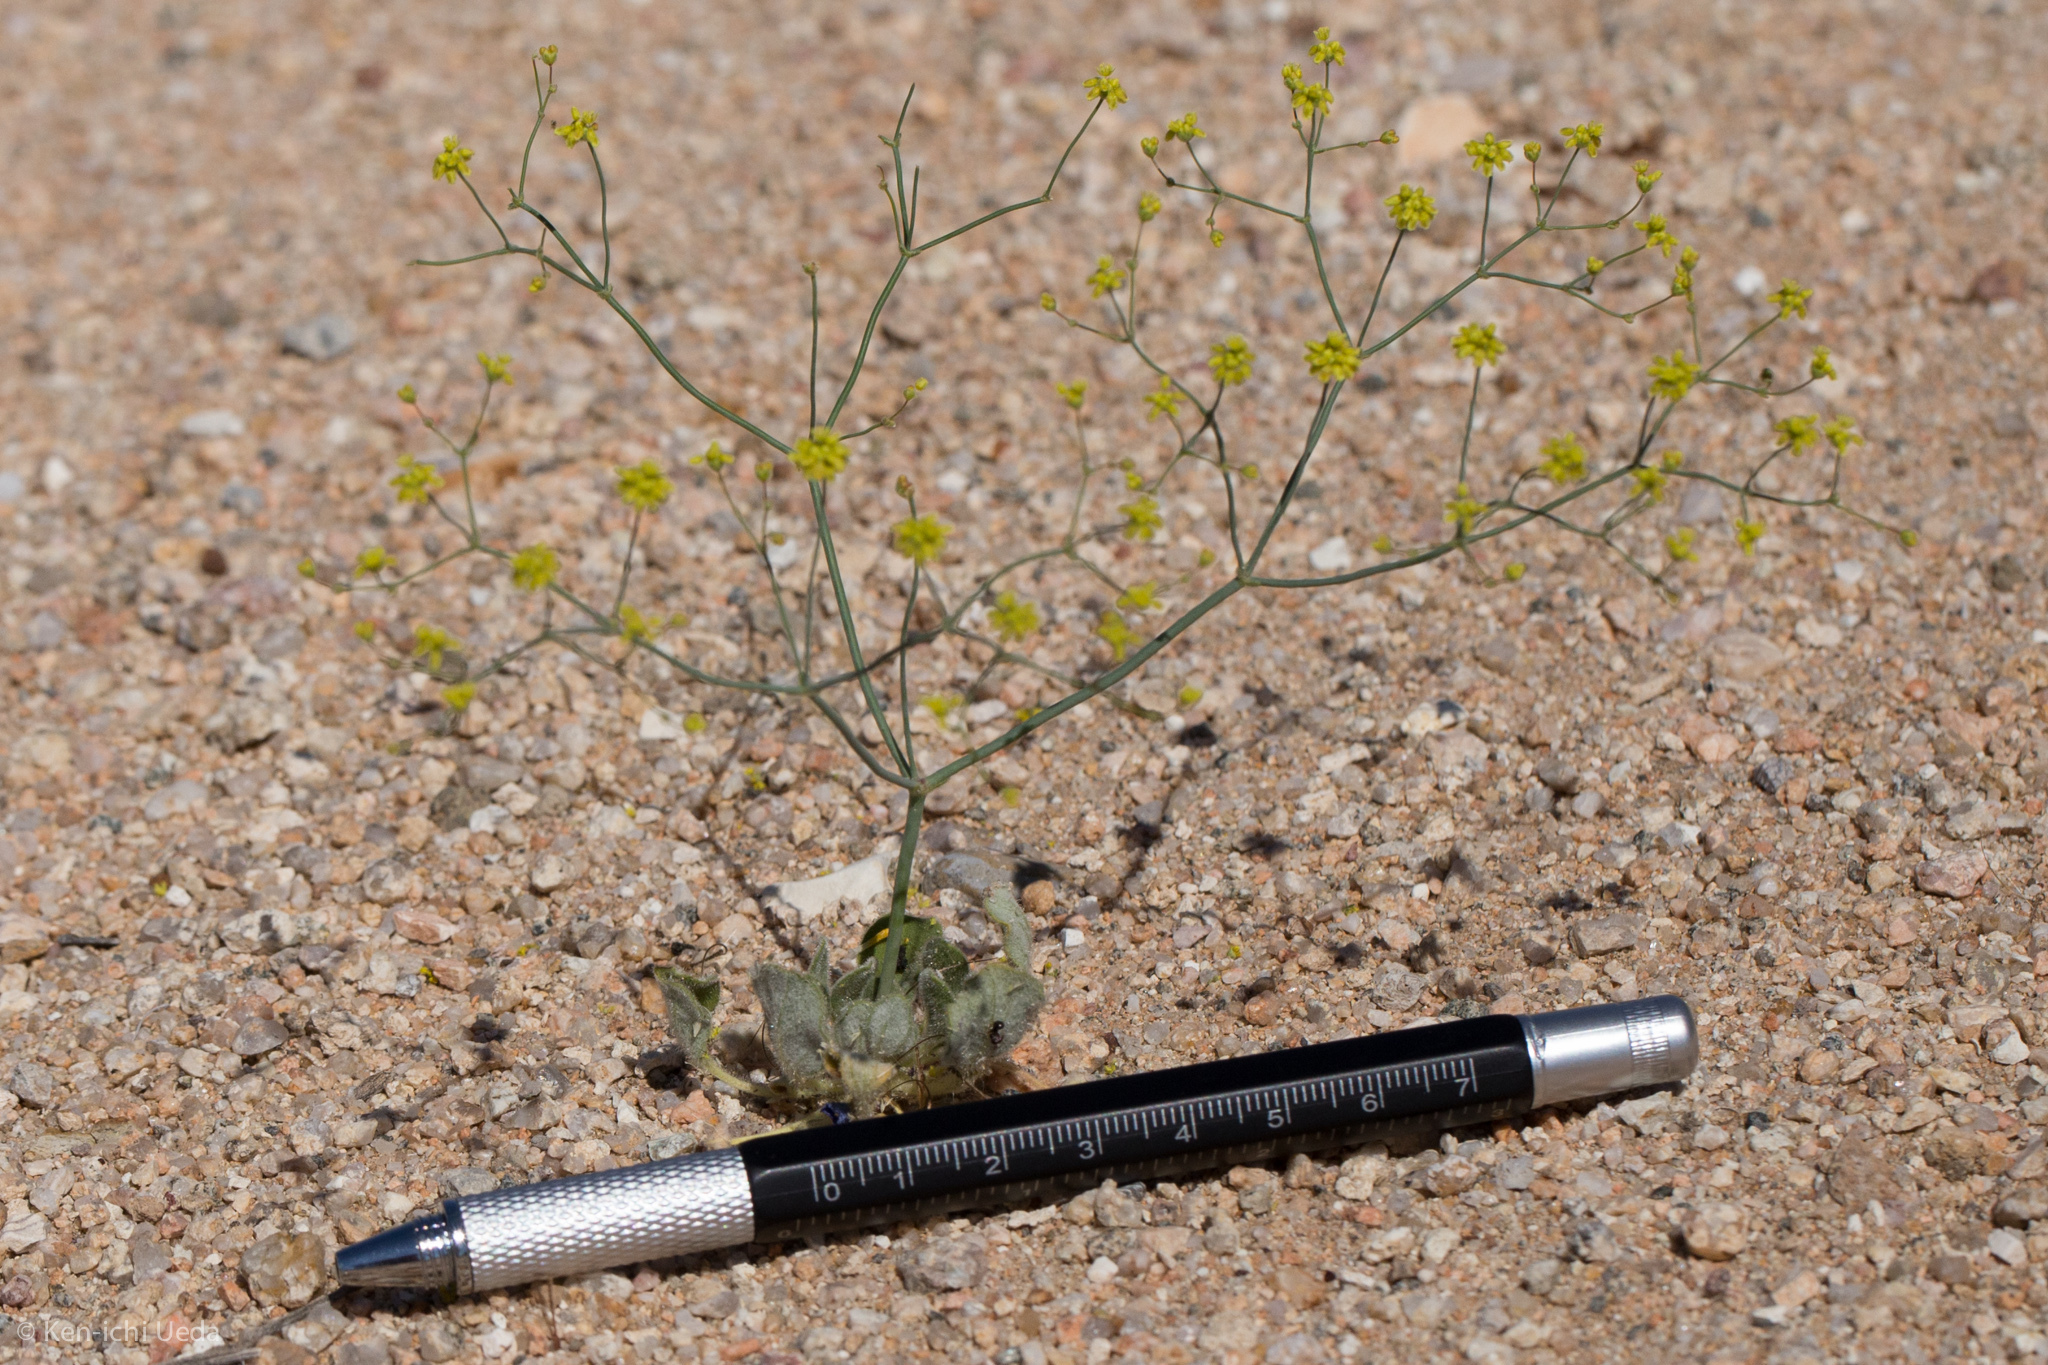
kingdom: Plantae
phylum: Tracheophyta
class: Magnoliopsida
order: Caryophyllales
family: Polygonaceae
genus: Eriogonum
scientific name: Eriogonum pusillum
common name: Yellow turbans
